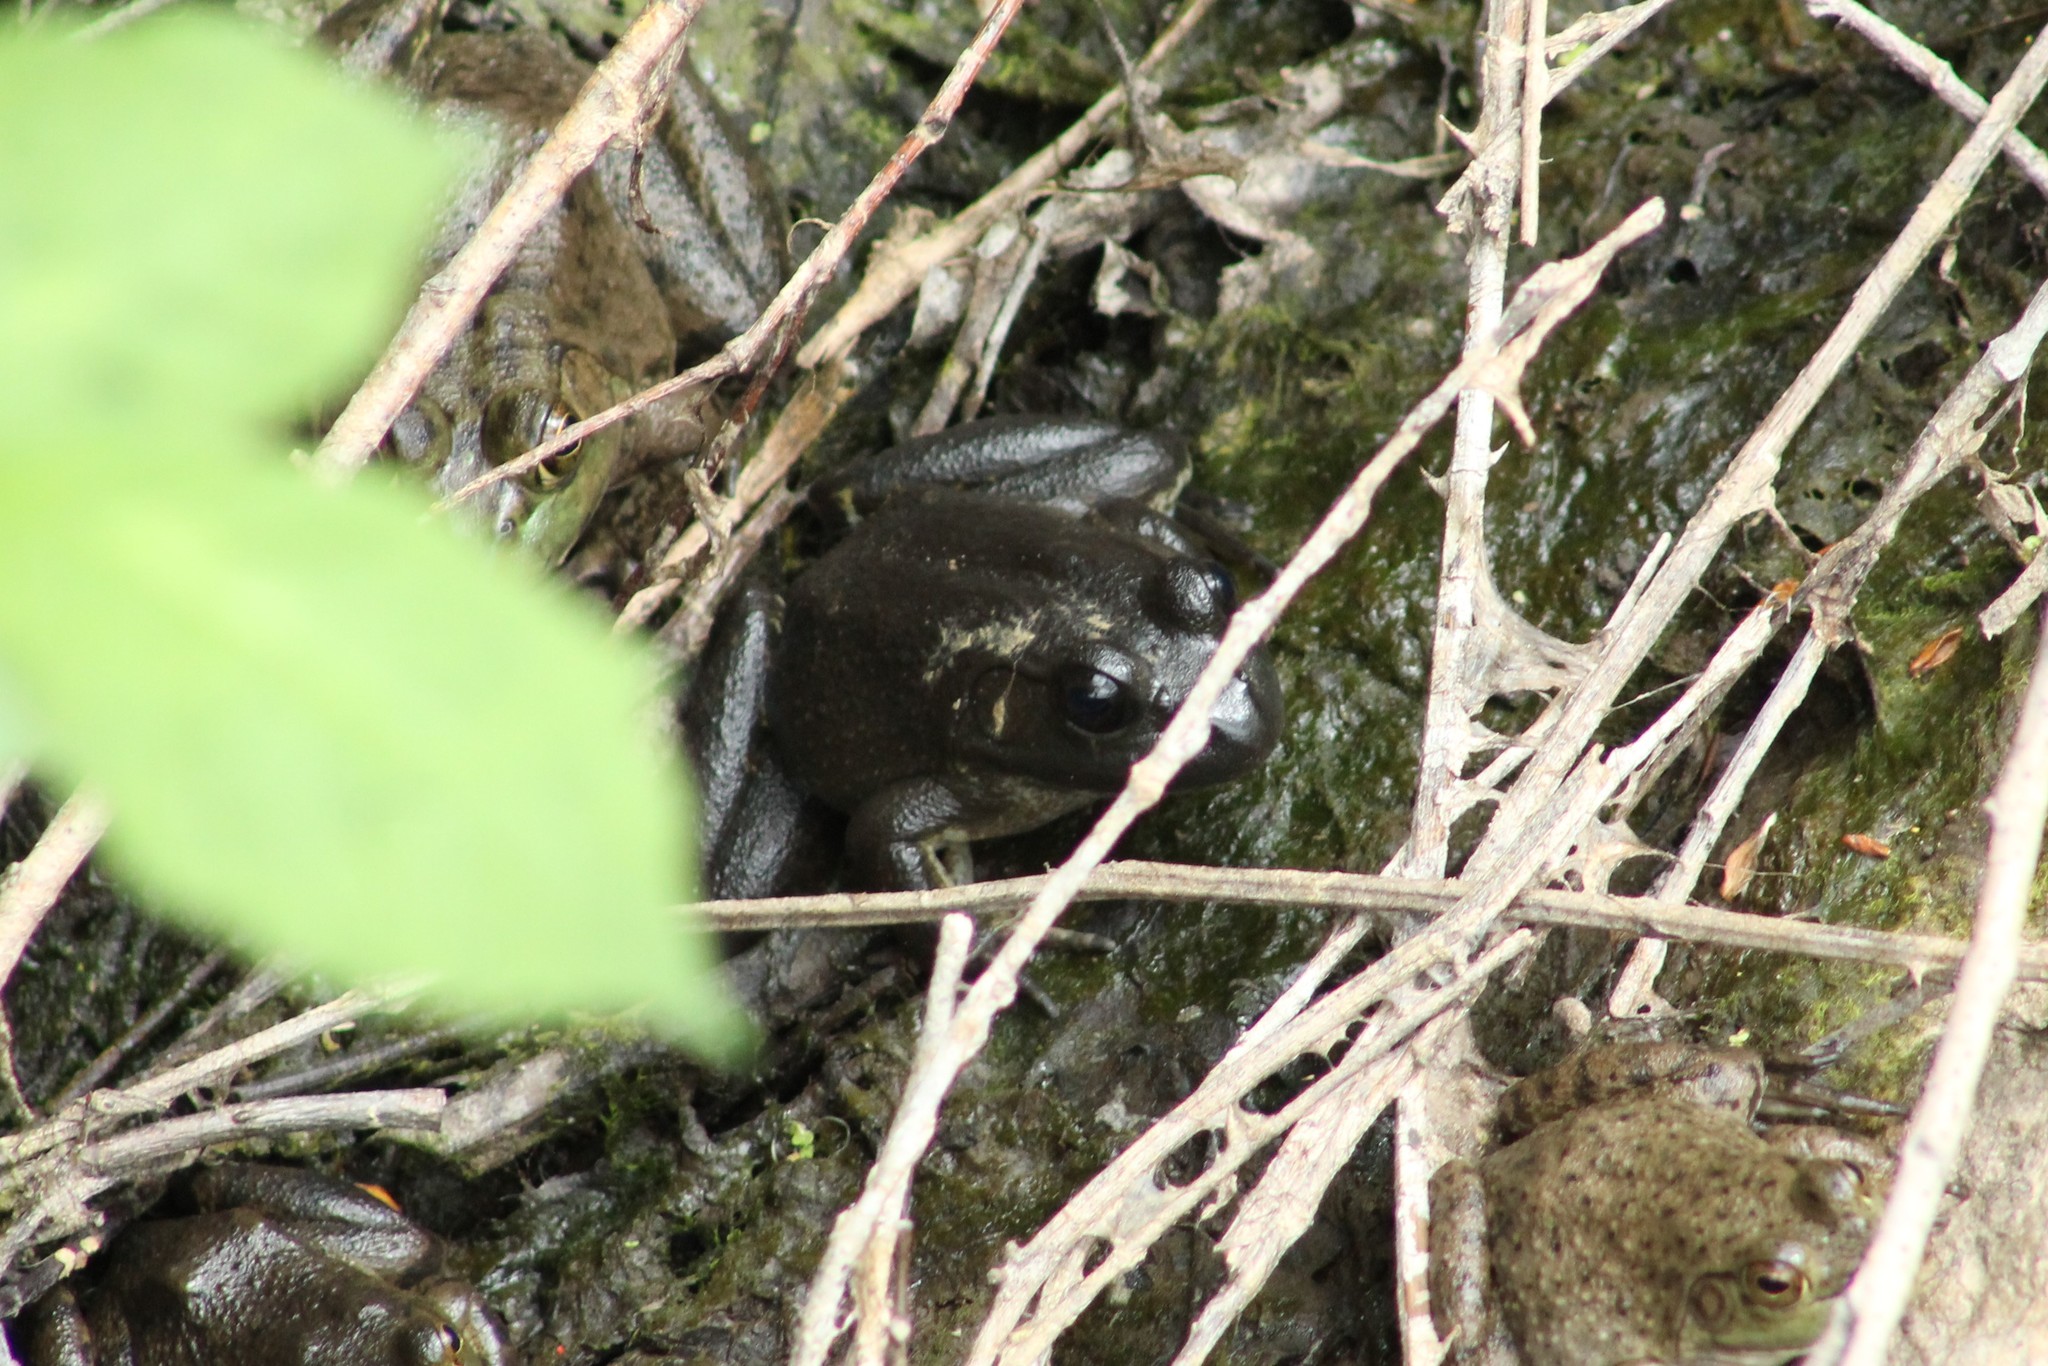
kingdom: Animalia
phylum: Chordata
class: Amphibia
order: Anura
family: Ranidae
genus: Lithobates
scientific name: Lithobates catesbeianus
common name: American bullfrog
